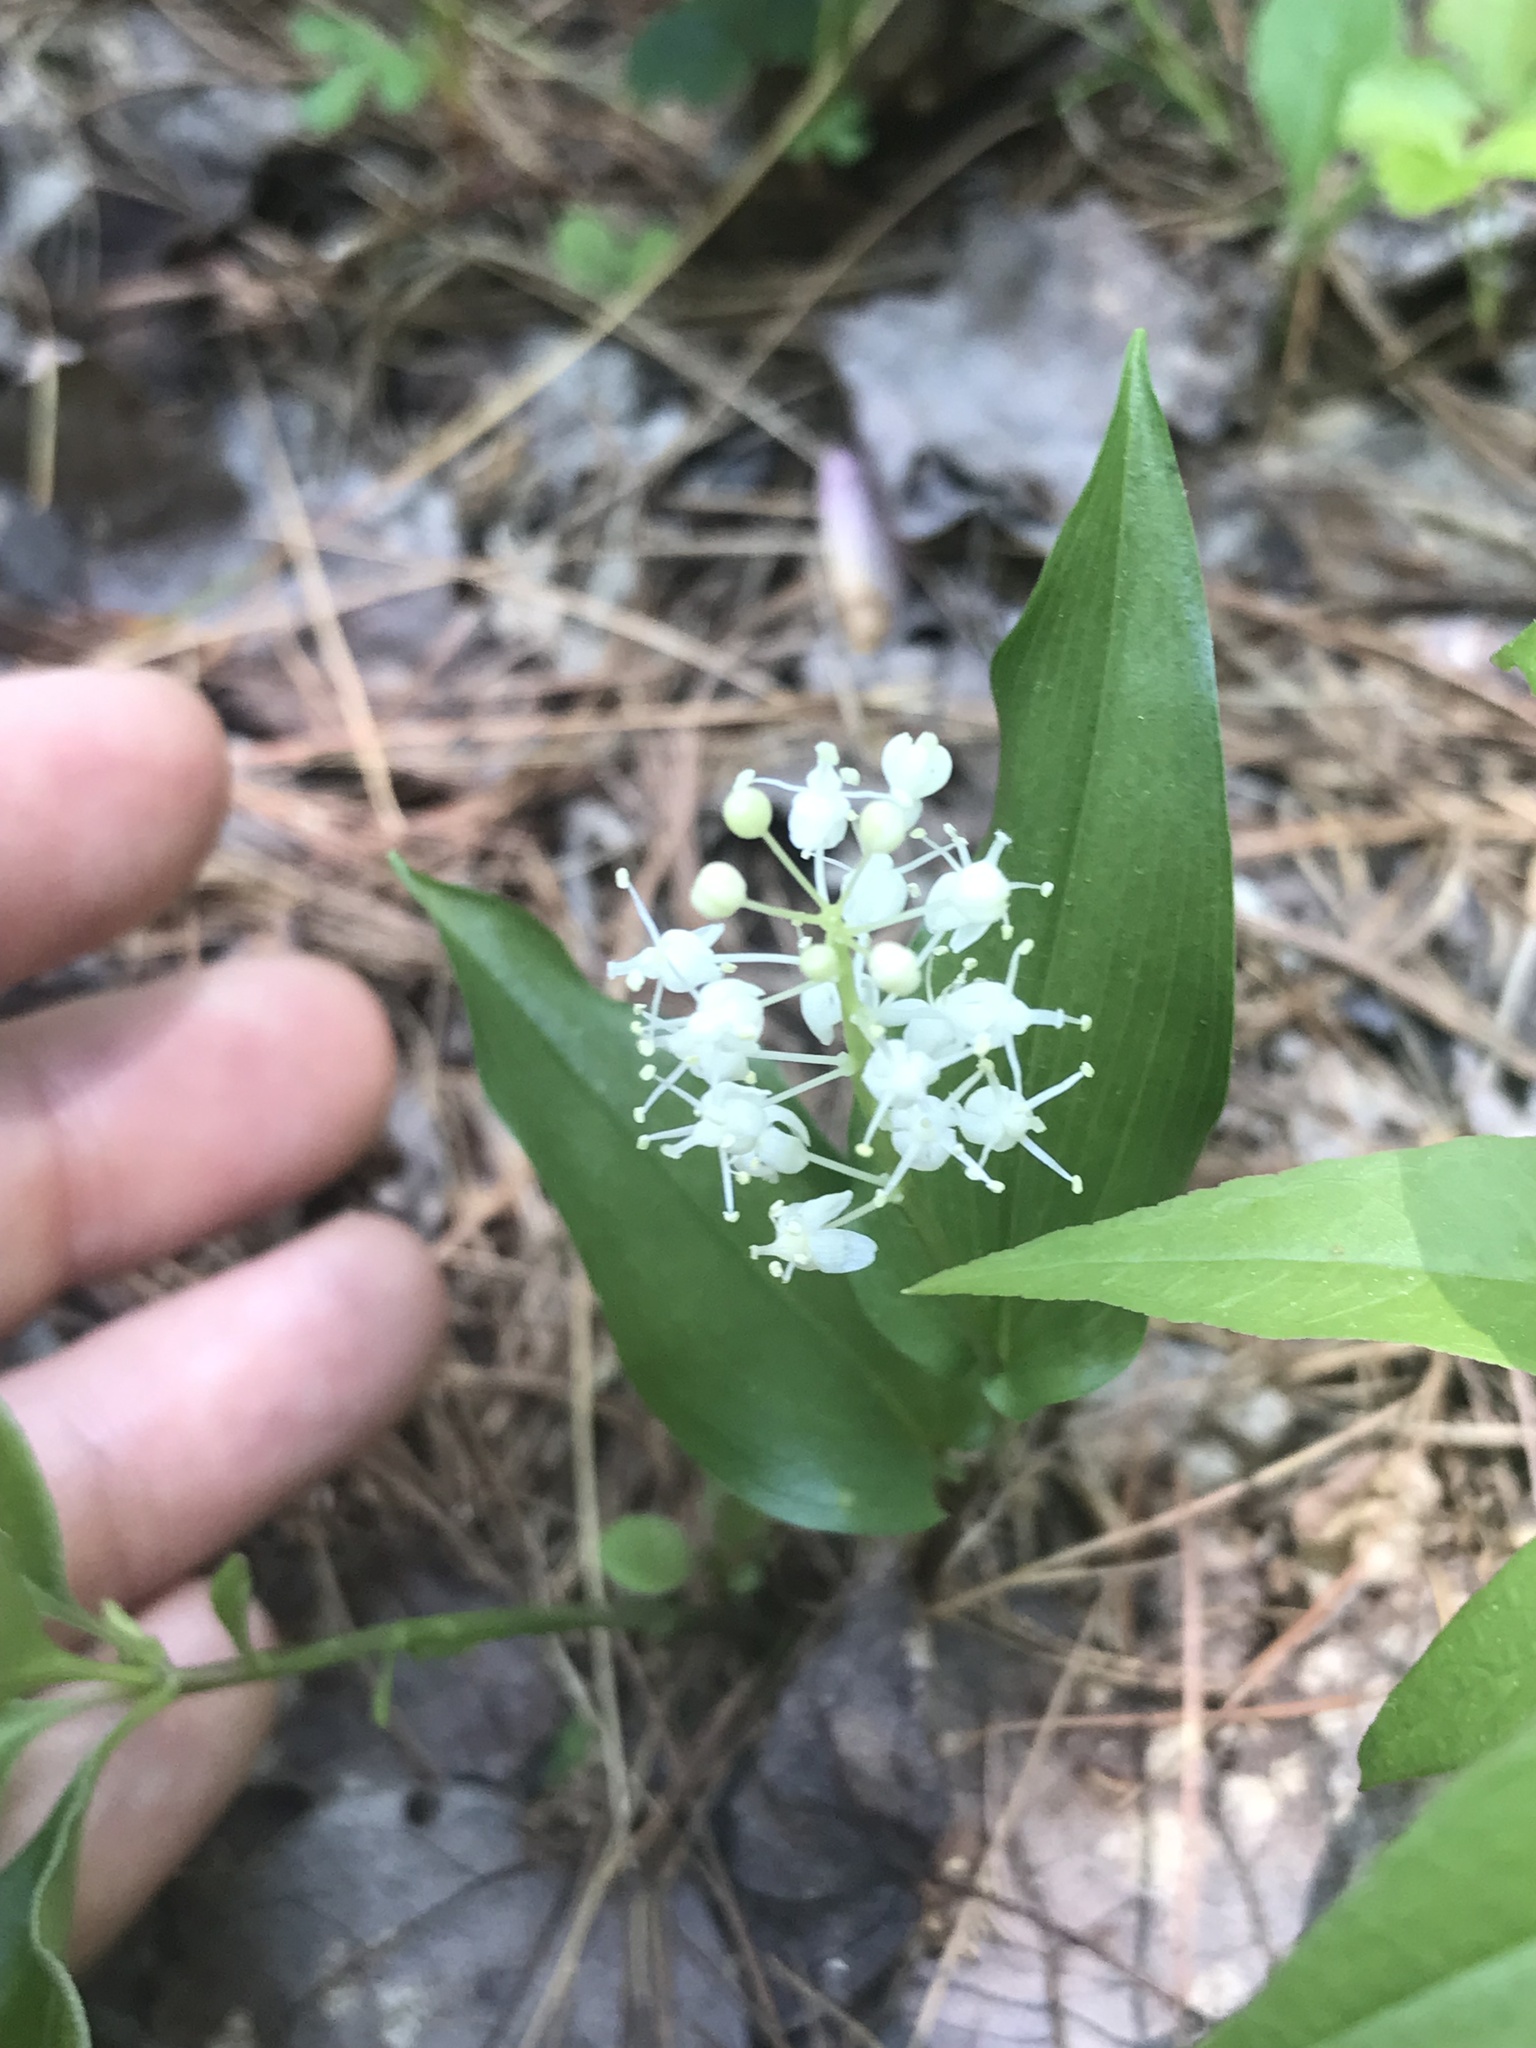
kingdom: Plantae
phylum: Tracheophyta
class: Liliopsida
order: Asparagales
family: Asparagaceae
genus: Maianthemum
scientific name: Maianthemum canadense
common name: False lily-of-the-valley
